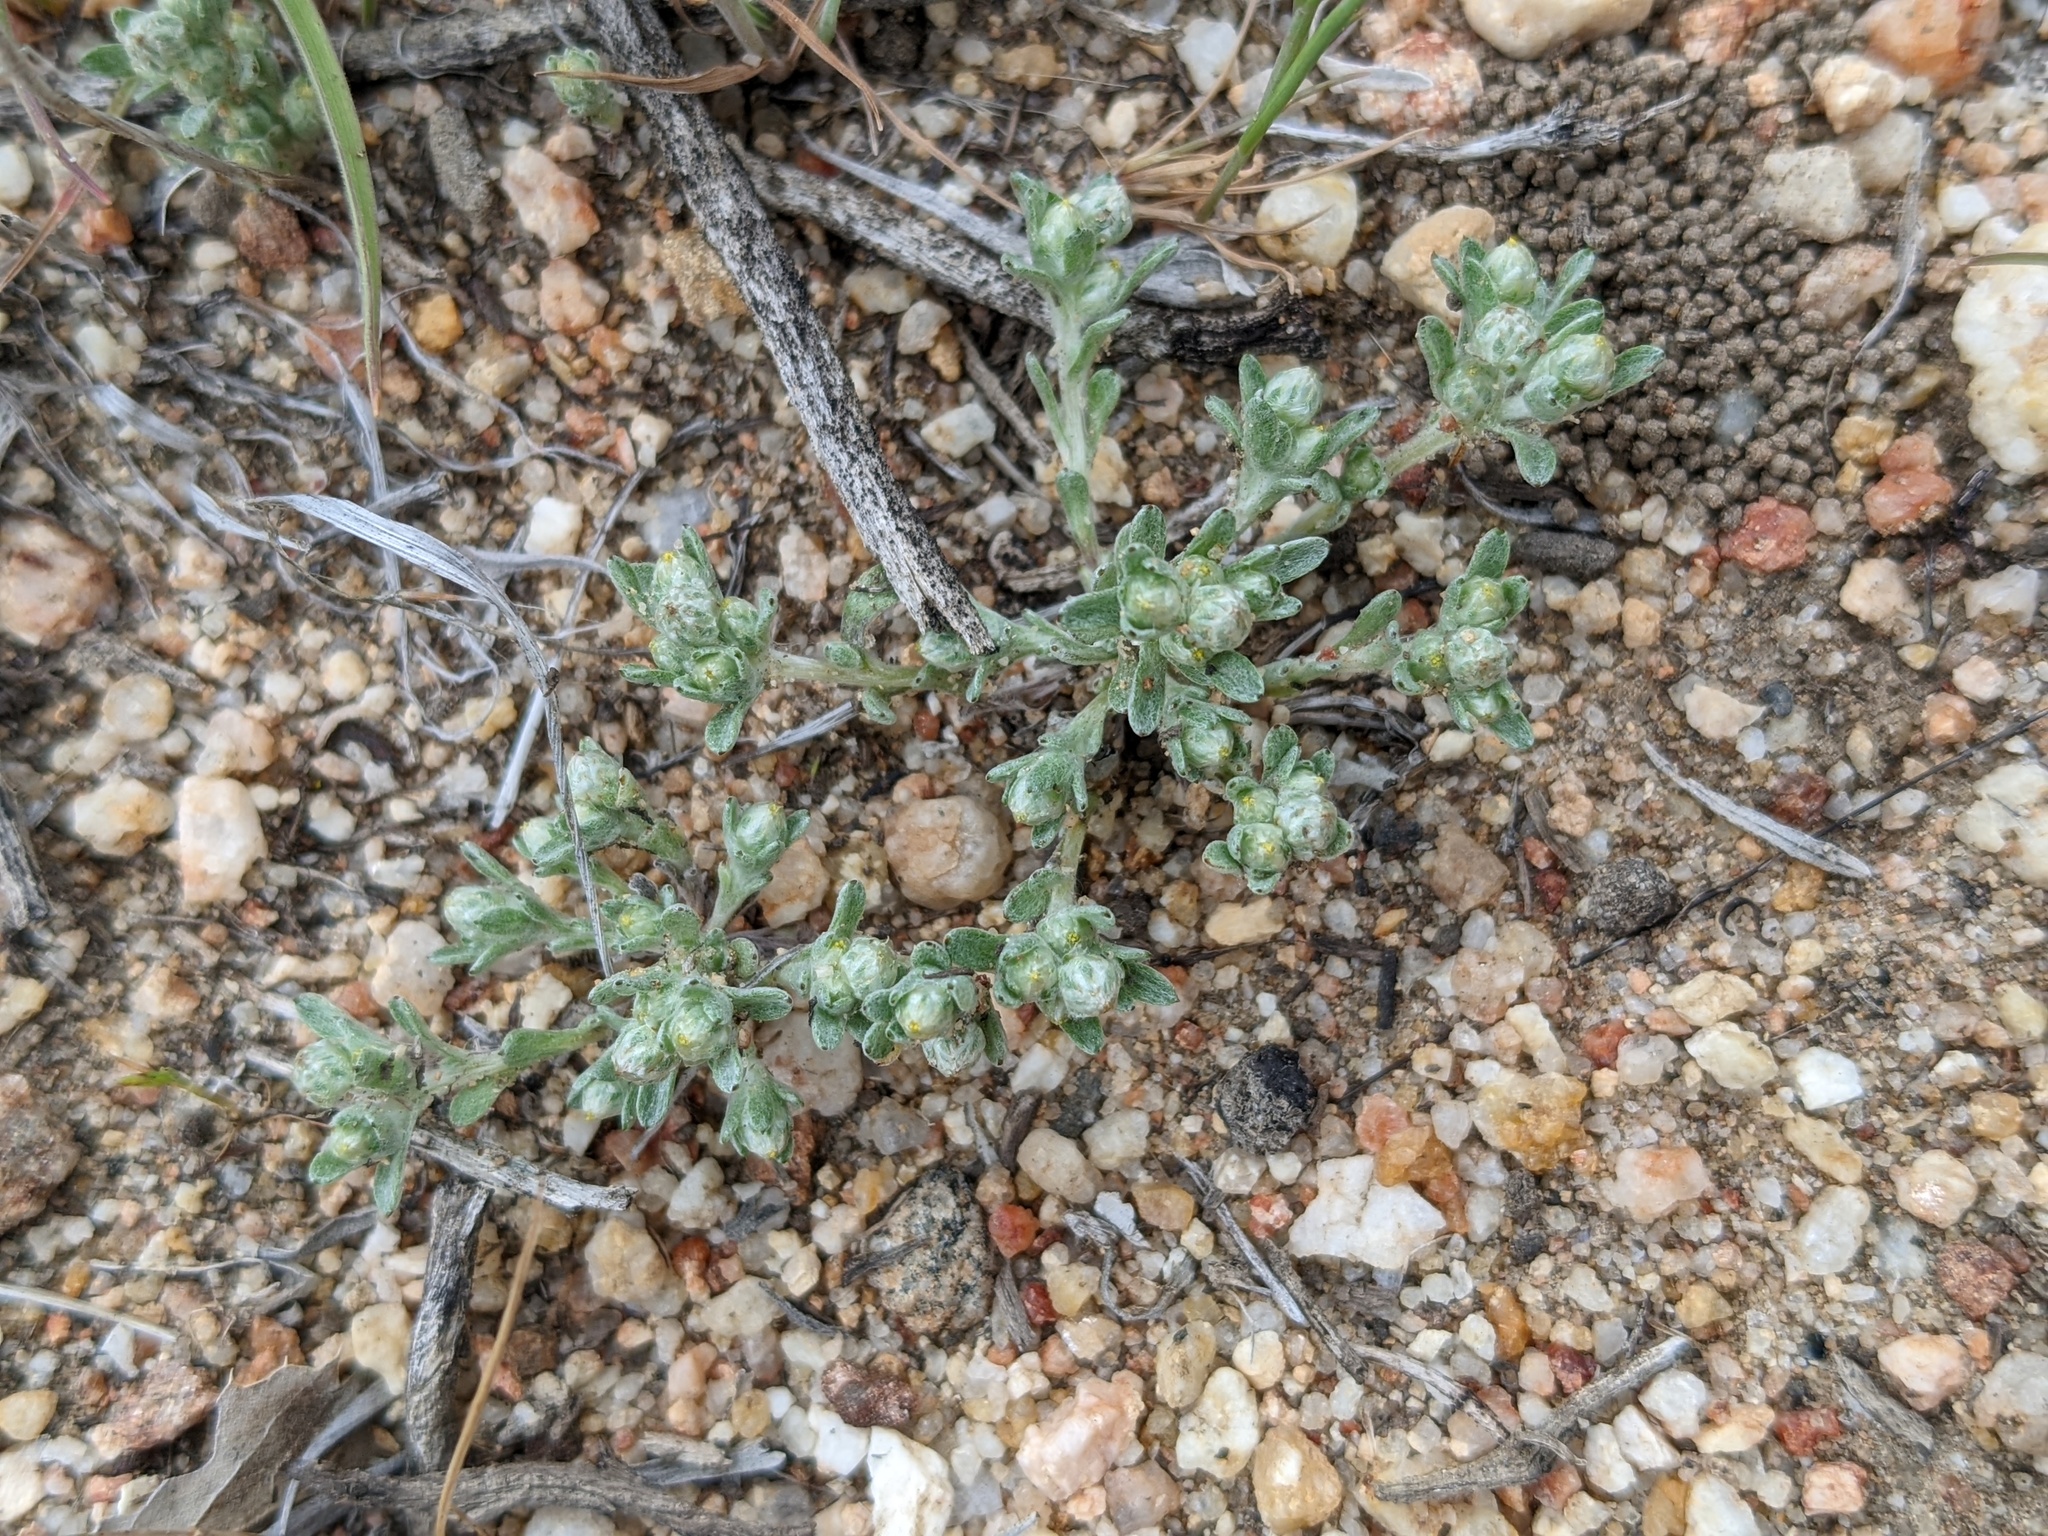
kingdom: Plantae
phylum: Tracheophyta
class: Magnoliopsida
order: Asterales
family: Asteraceae
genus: Stylocline
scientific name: Stylocline gnaphaloides
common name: Everlasting nest-straw
